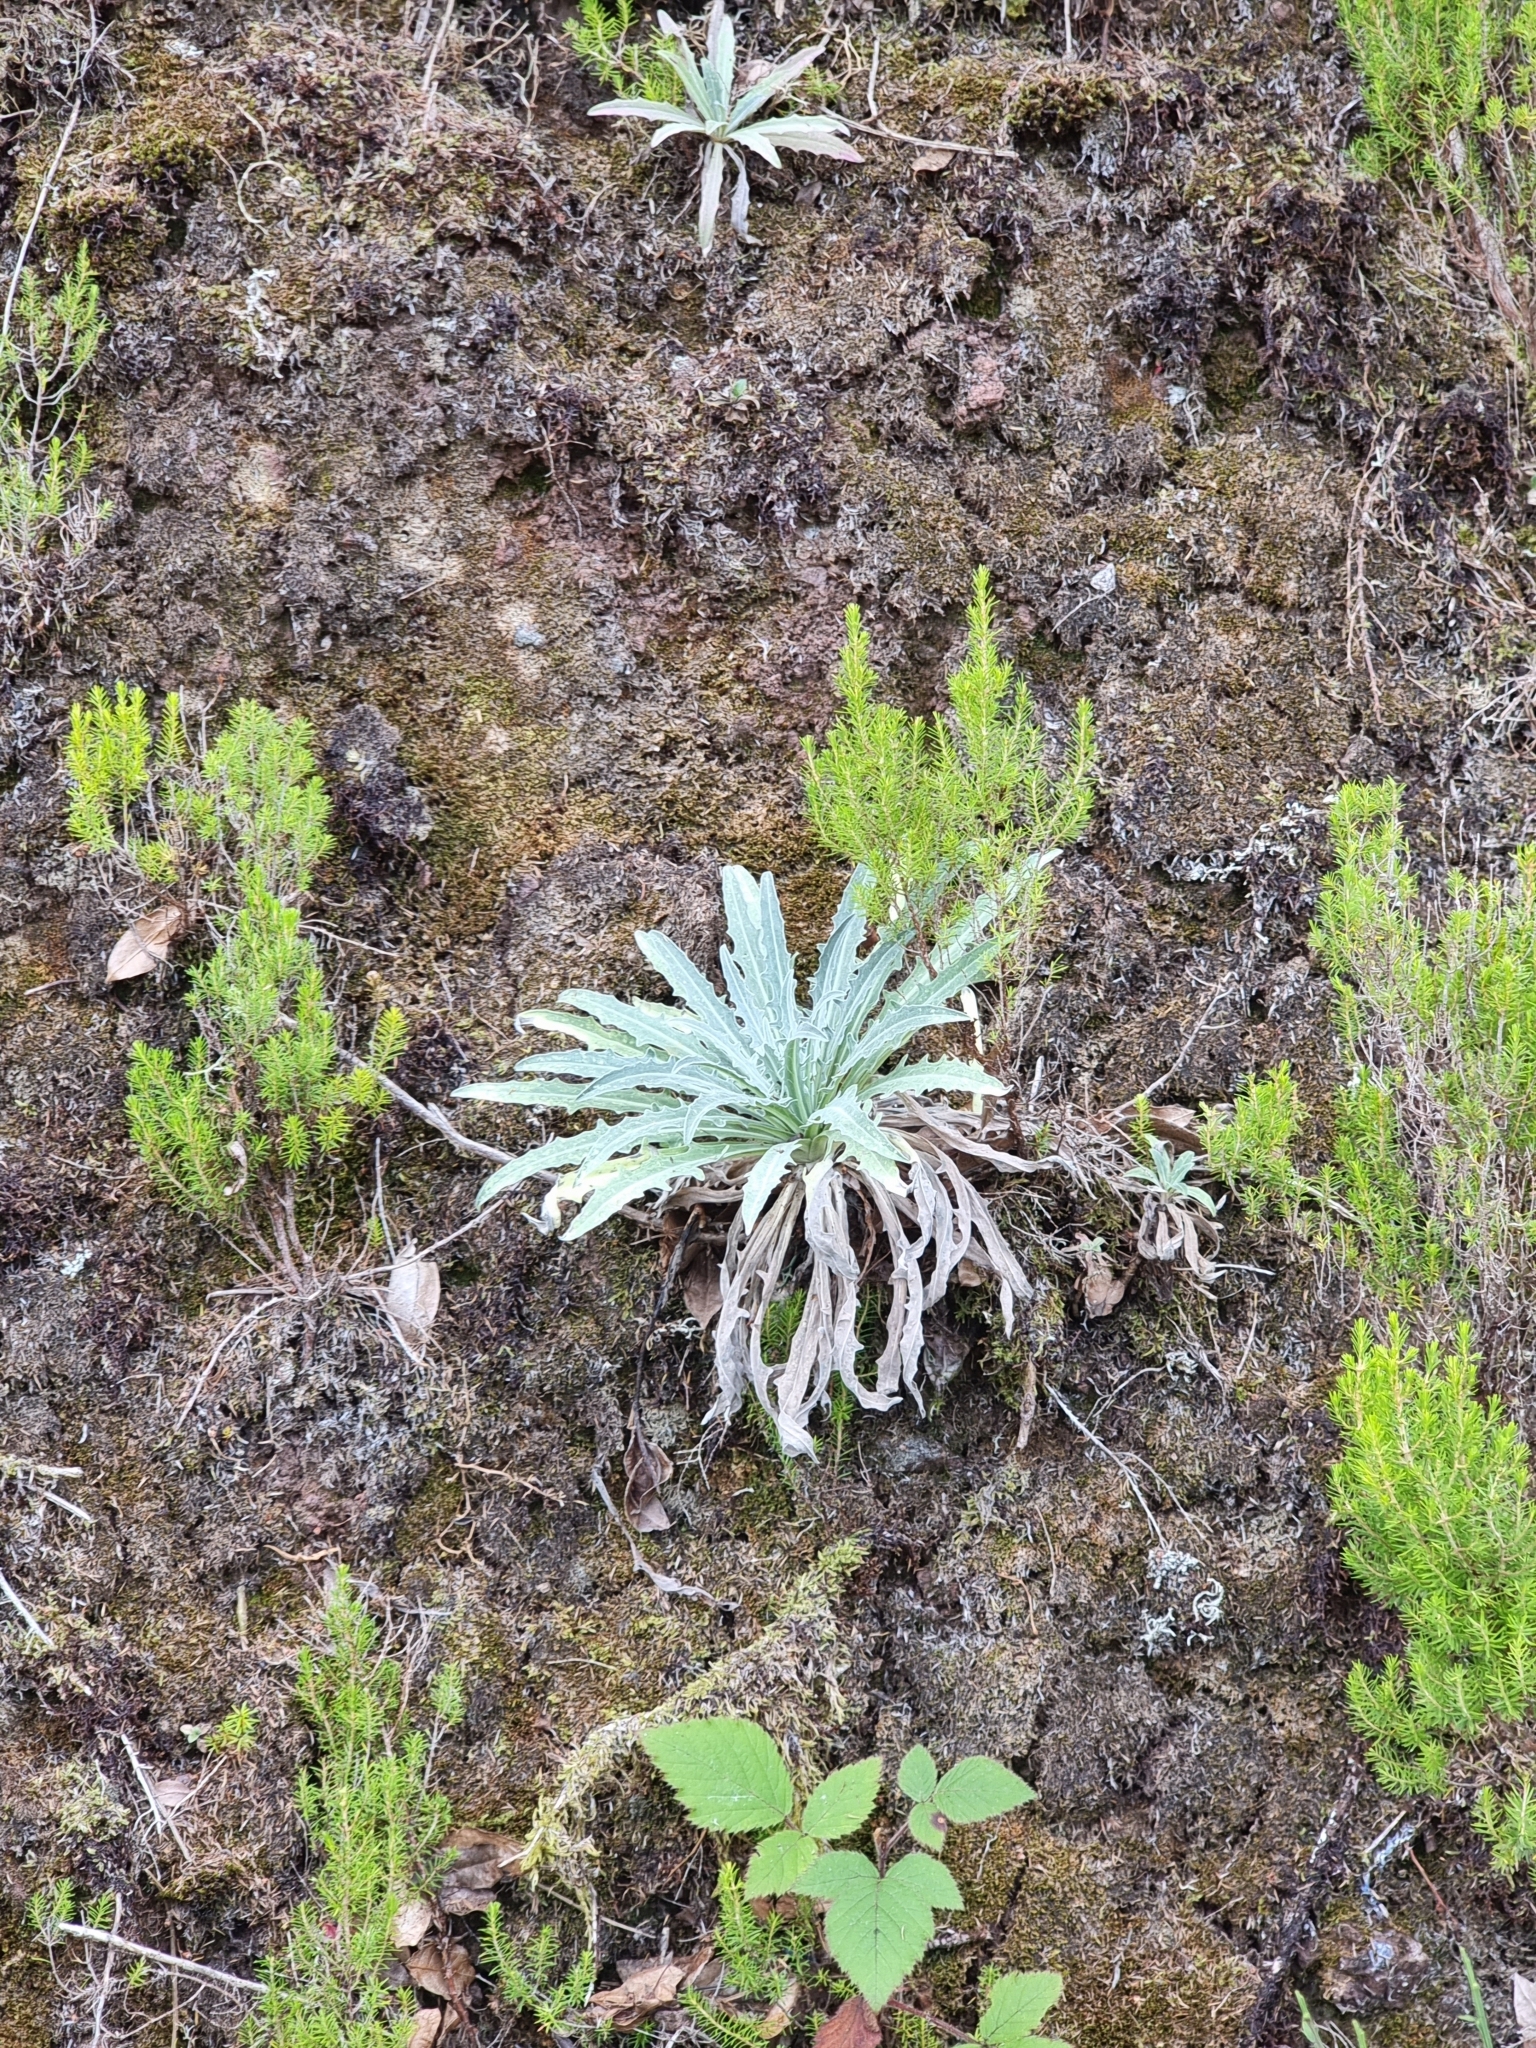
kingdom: Plantae
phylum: Tracheophyta
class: Magnoliopsida
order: Asterales
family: Asteraceae
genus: Andryala
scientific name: Andryala glandulosa
